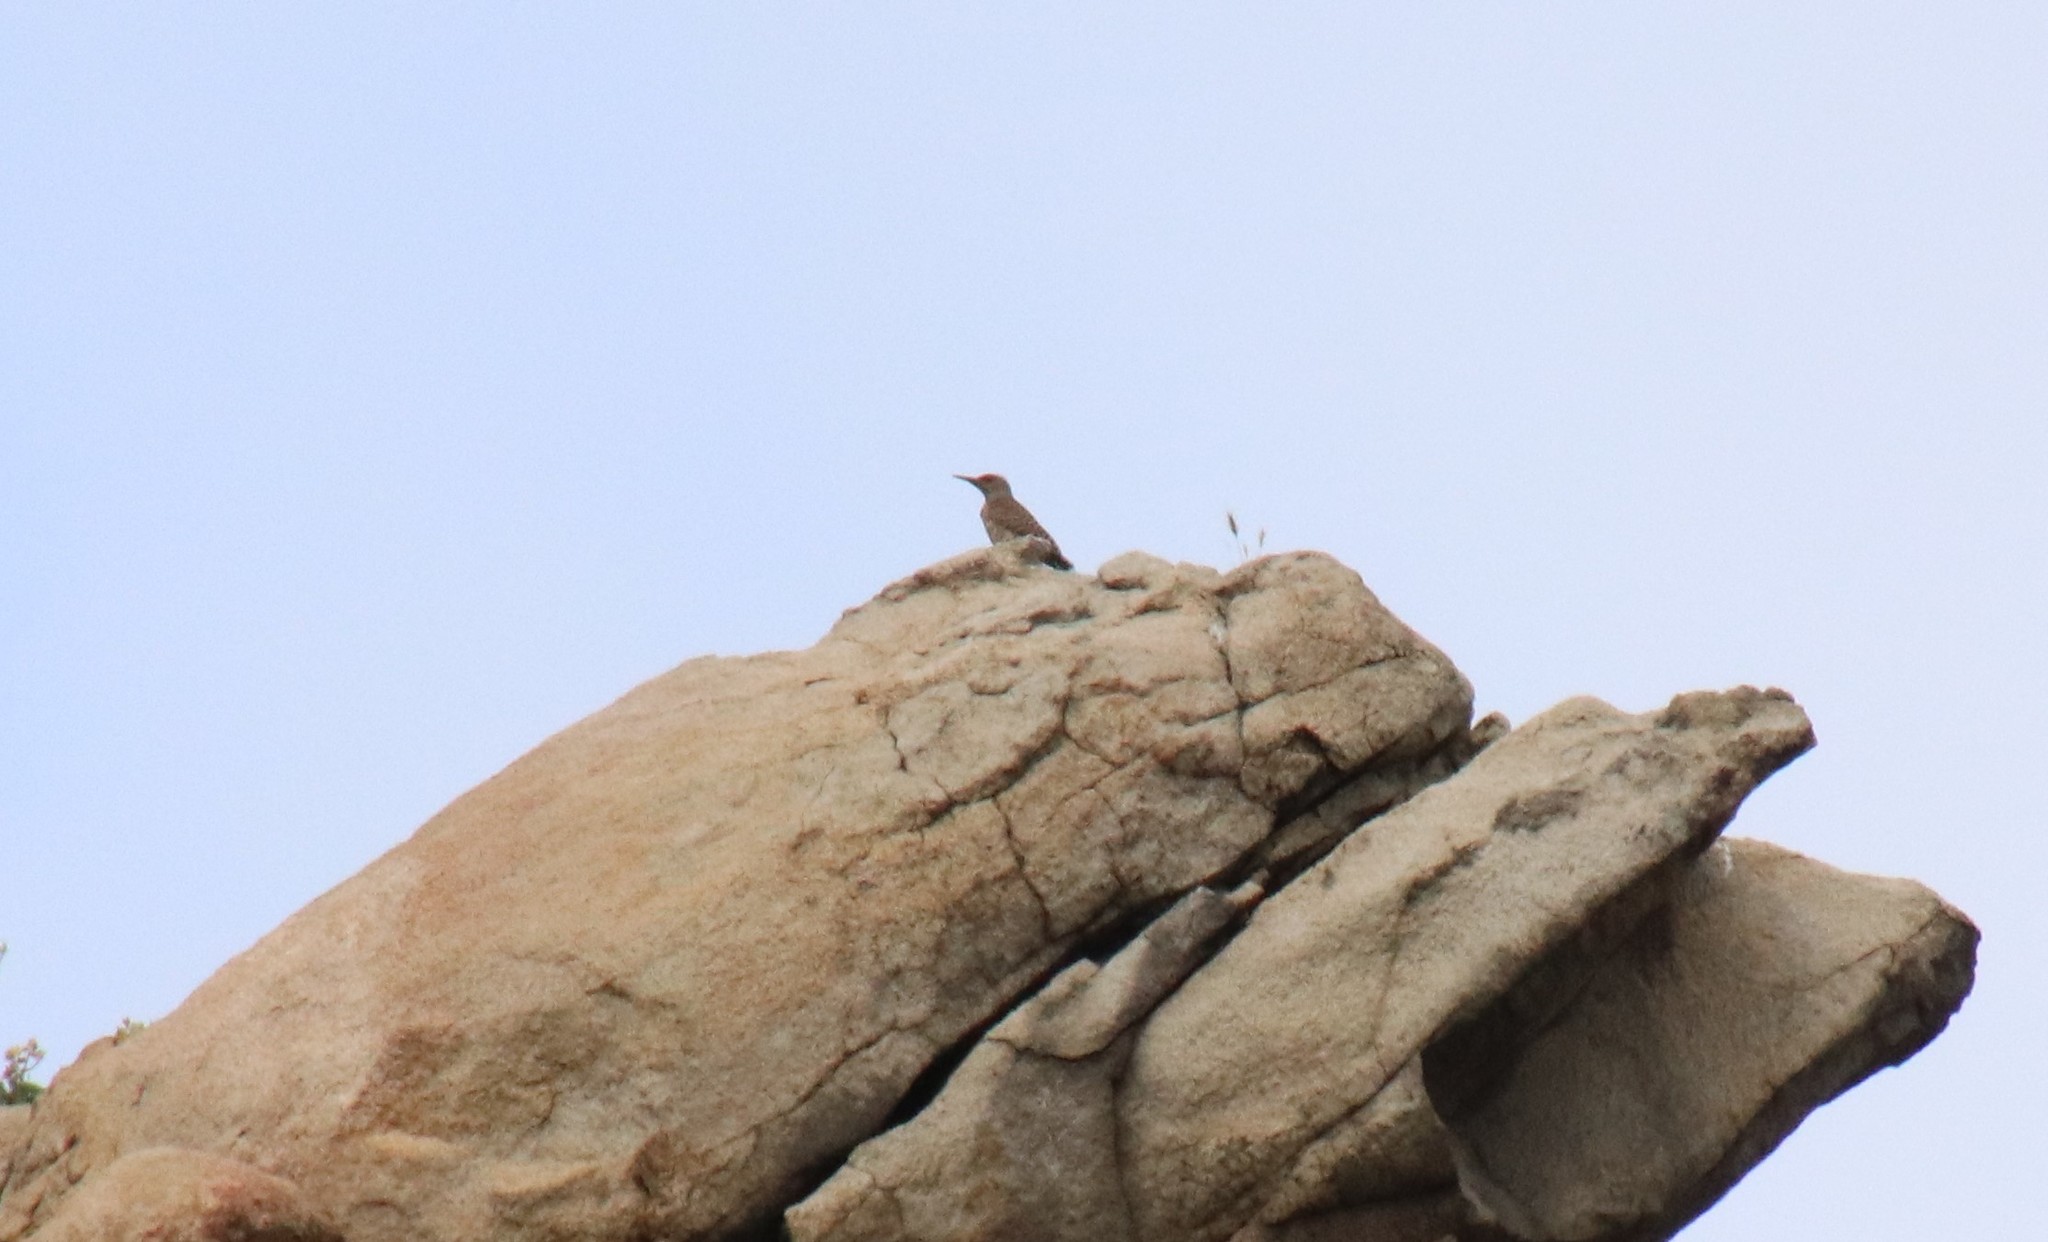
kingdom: Animalia
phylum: Chordata
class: Aves
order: Piciformes
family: Picidae
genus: Colaptes
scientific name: Colaptes auratus
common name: Northern flicker
